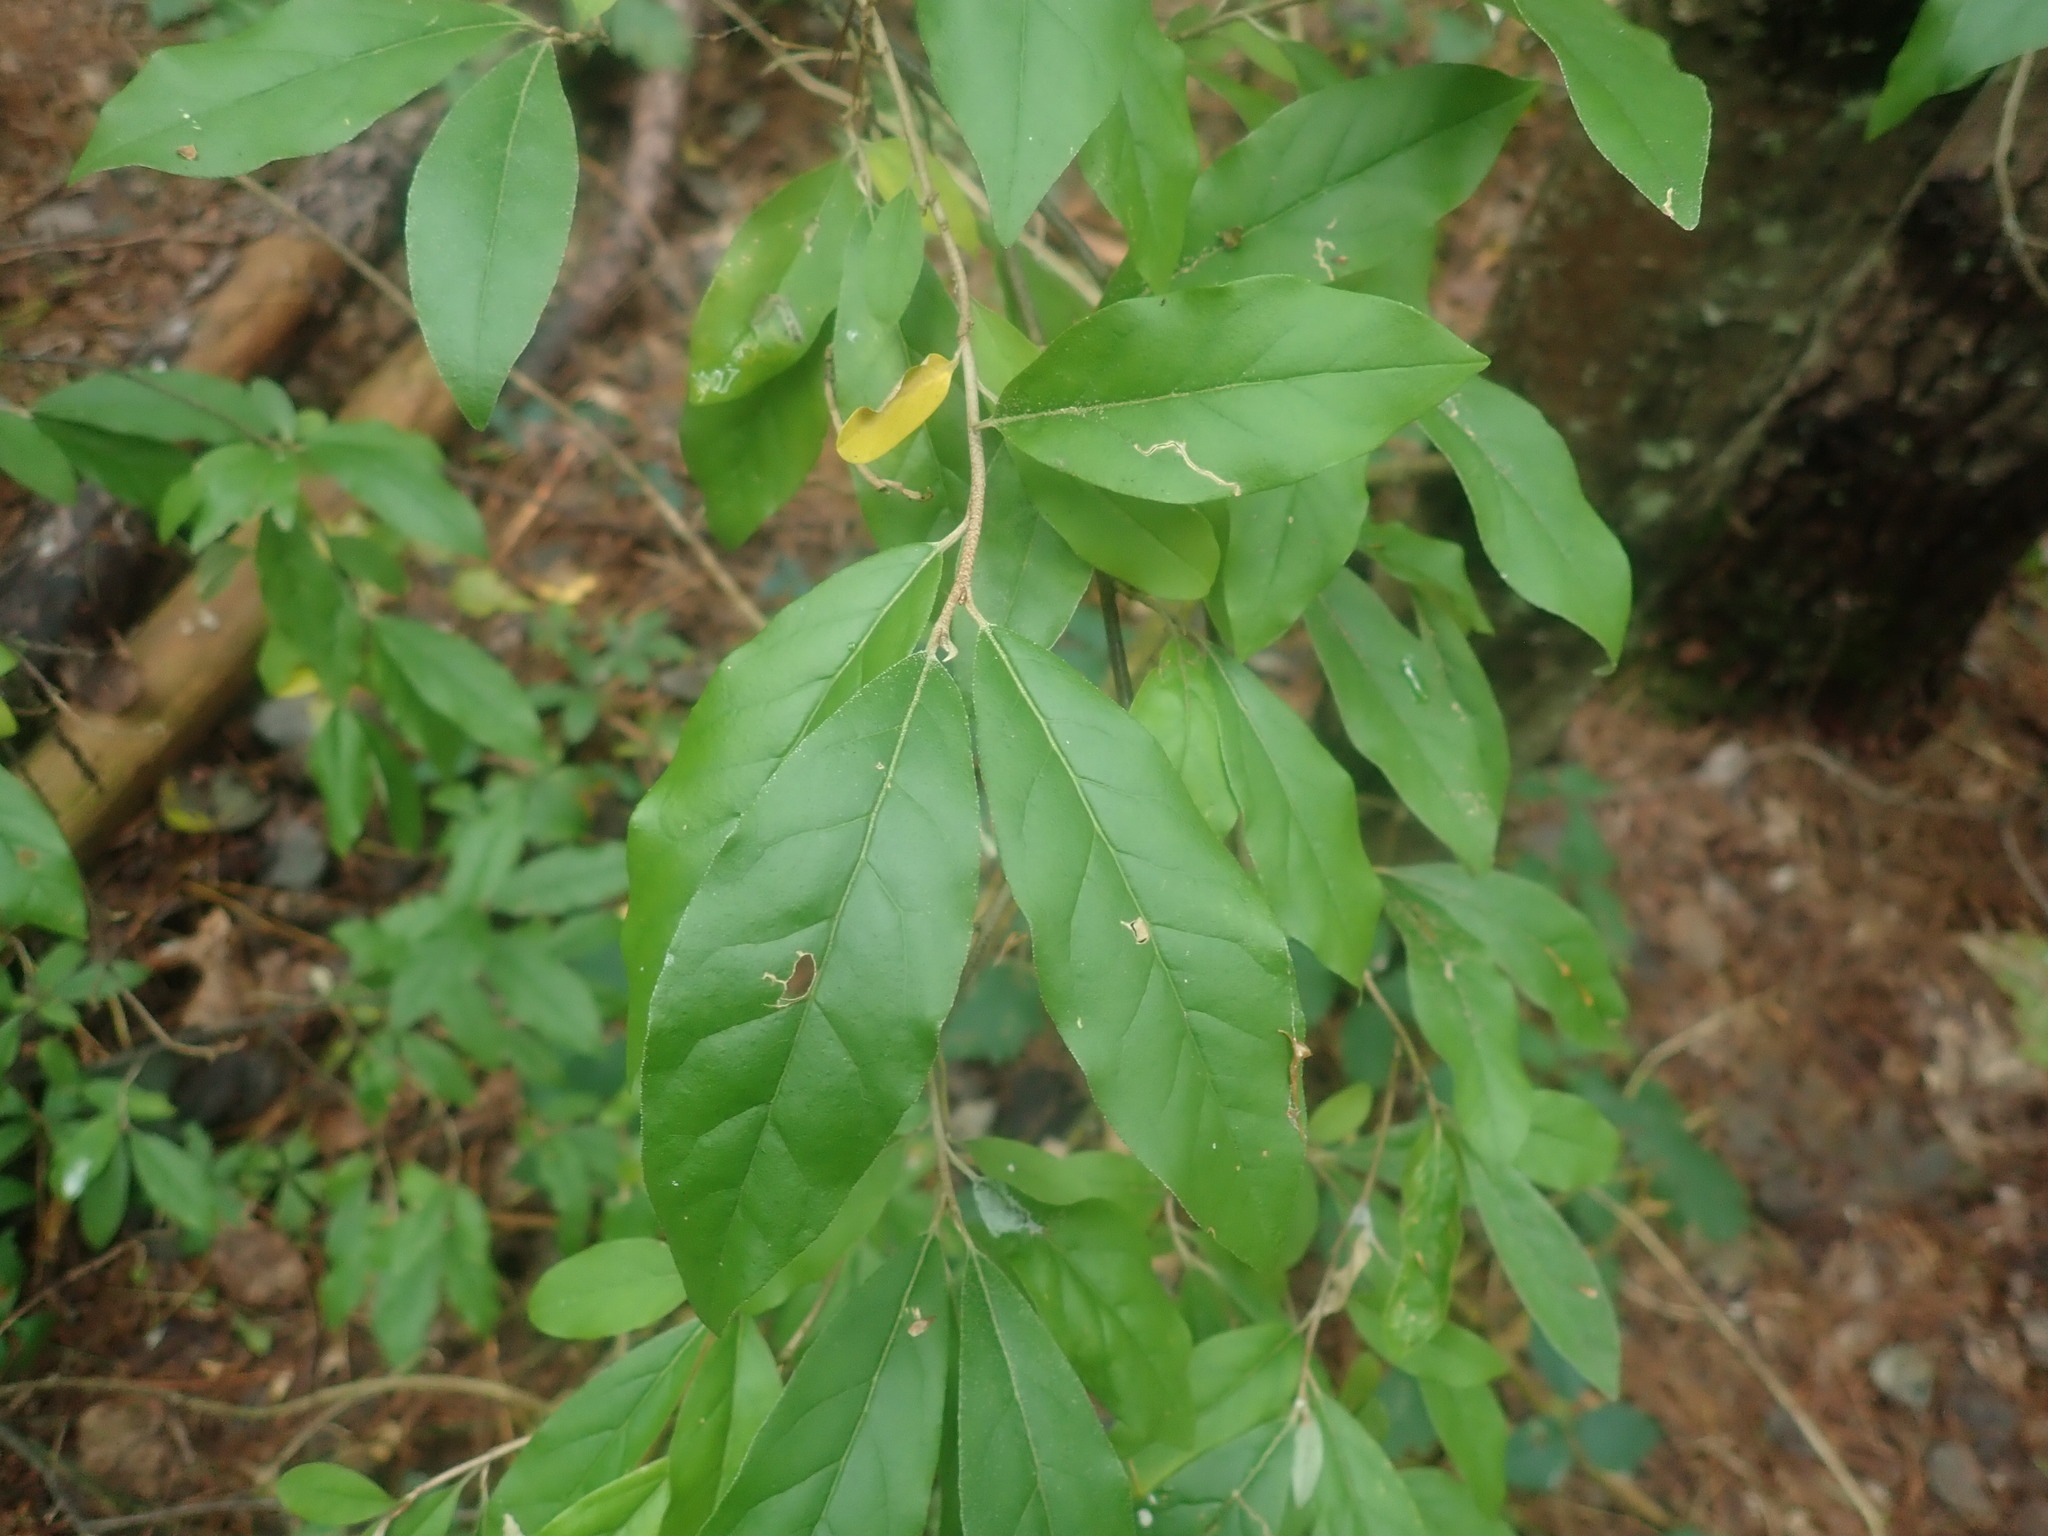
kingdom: Plantae
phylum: Tracheophyta
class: Magnoliopsida
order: Rosales
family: Elaeagnaceae
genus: Elaeagnus
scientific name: Elaeagnus umbellata
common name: Autumn olive
